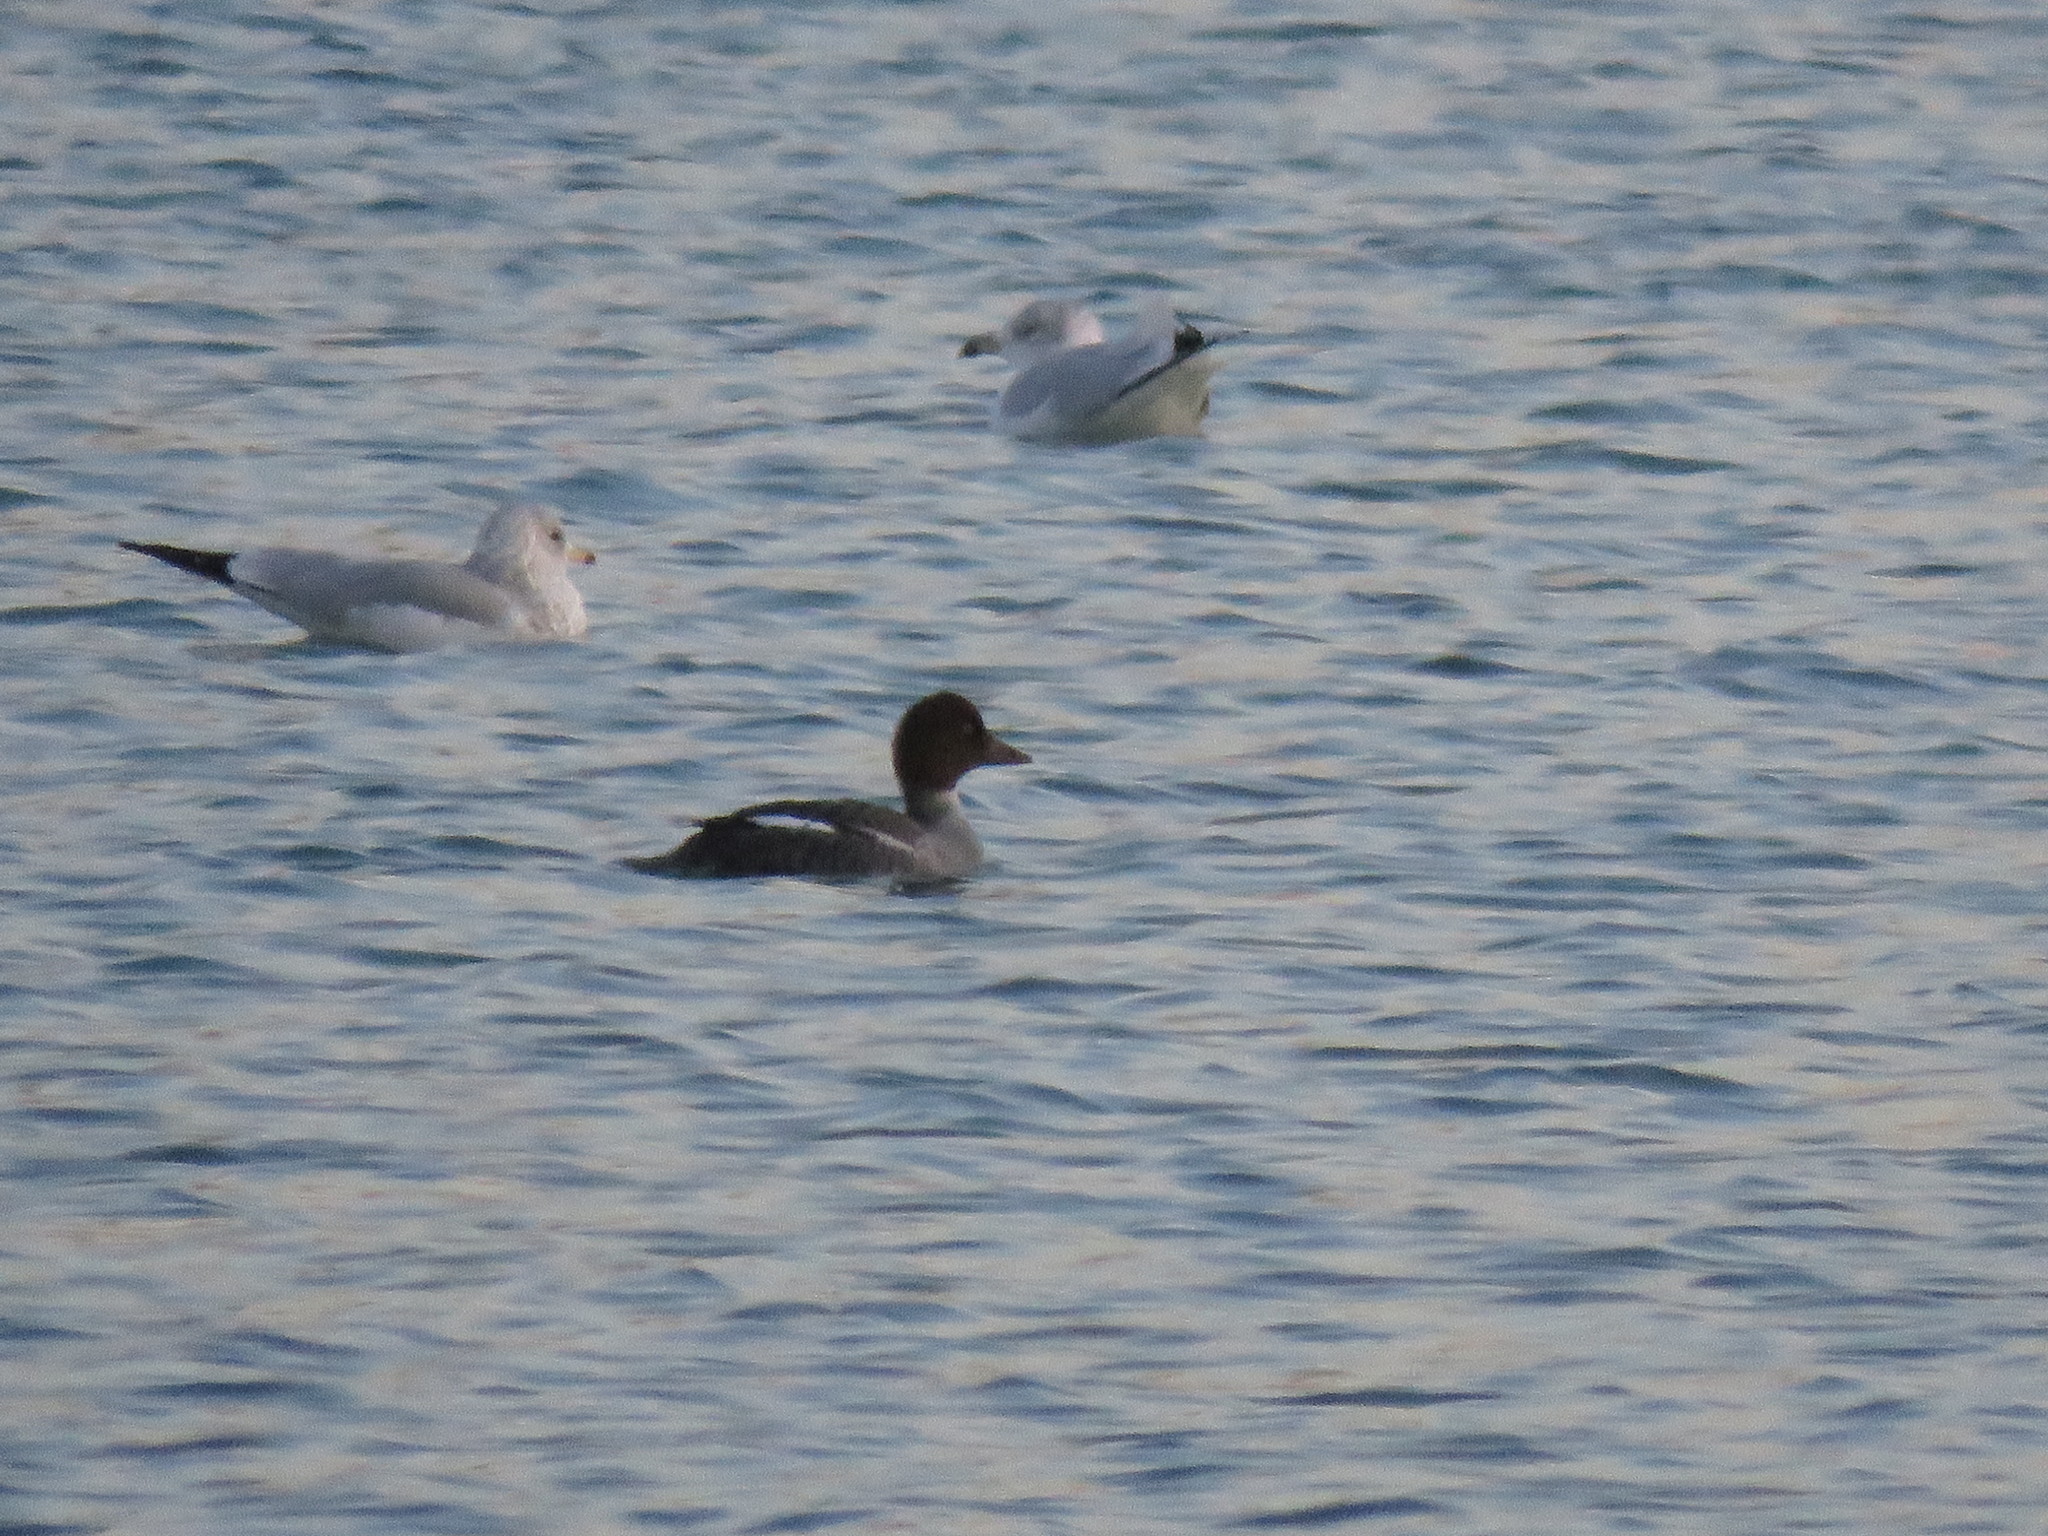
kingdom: Animalia
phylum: Chordata
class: Aves
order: Anseriformes
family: Anatidae
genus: Bucephala
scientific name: Bucephala clangula
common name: Common goldeneye
